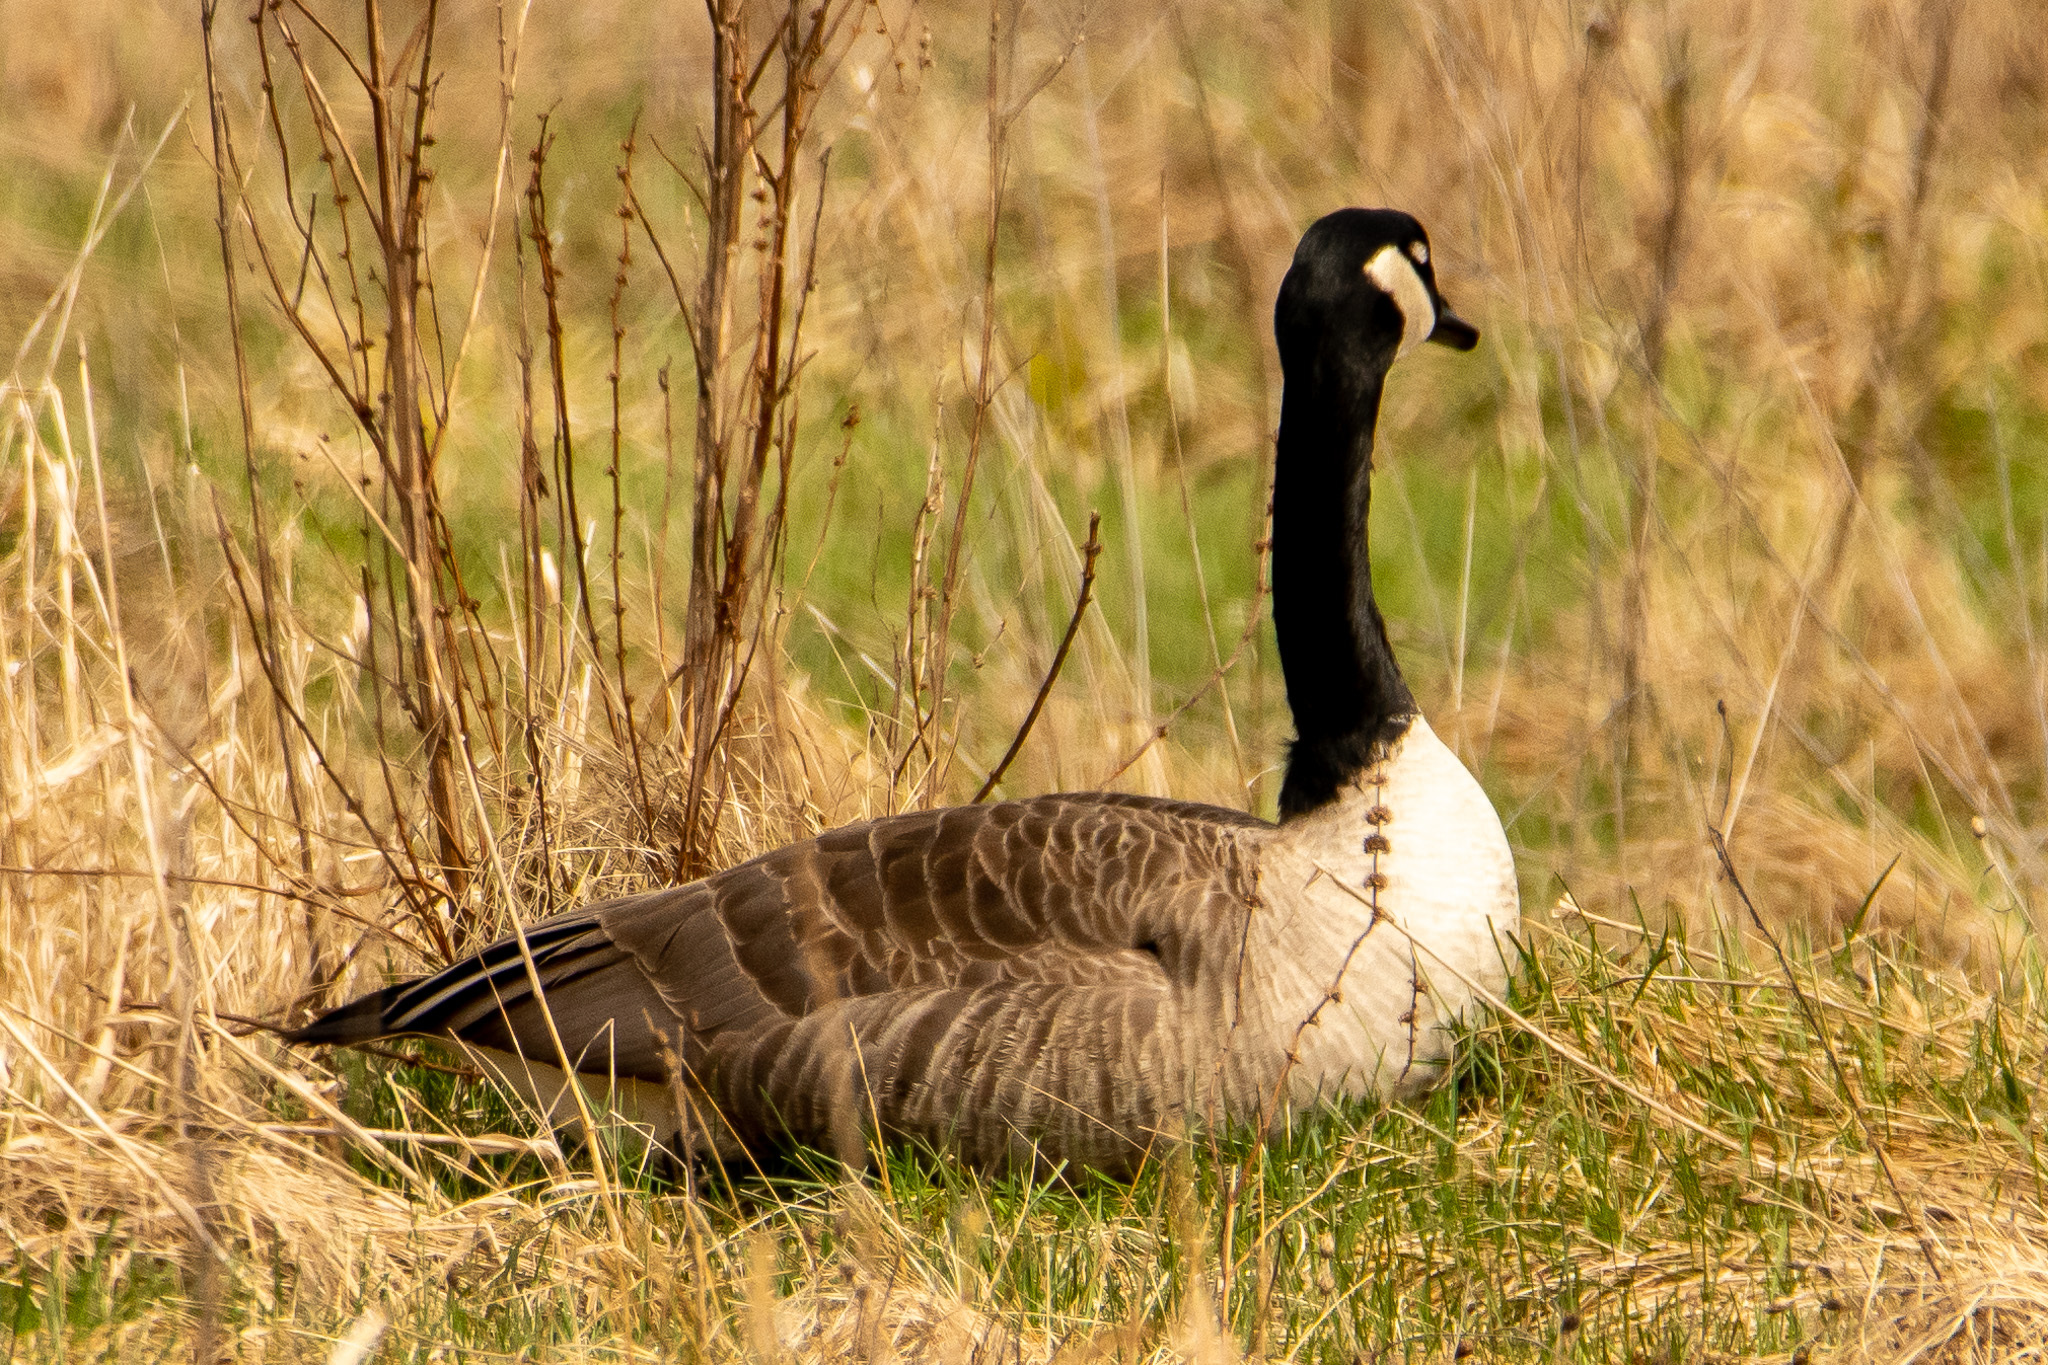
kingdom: Animalia
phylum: Chordata
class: Aves
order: Anseriformes
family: Anatidae
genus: Branta
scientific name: Branta canadensis
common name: Canada goose
